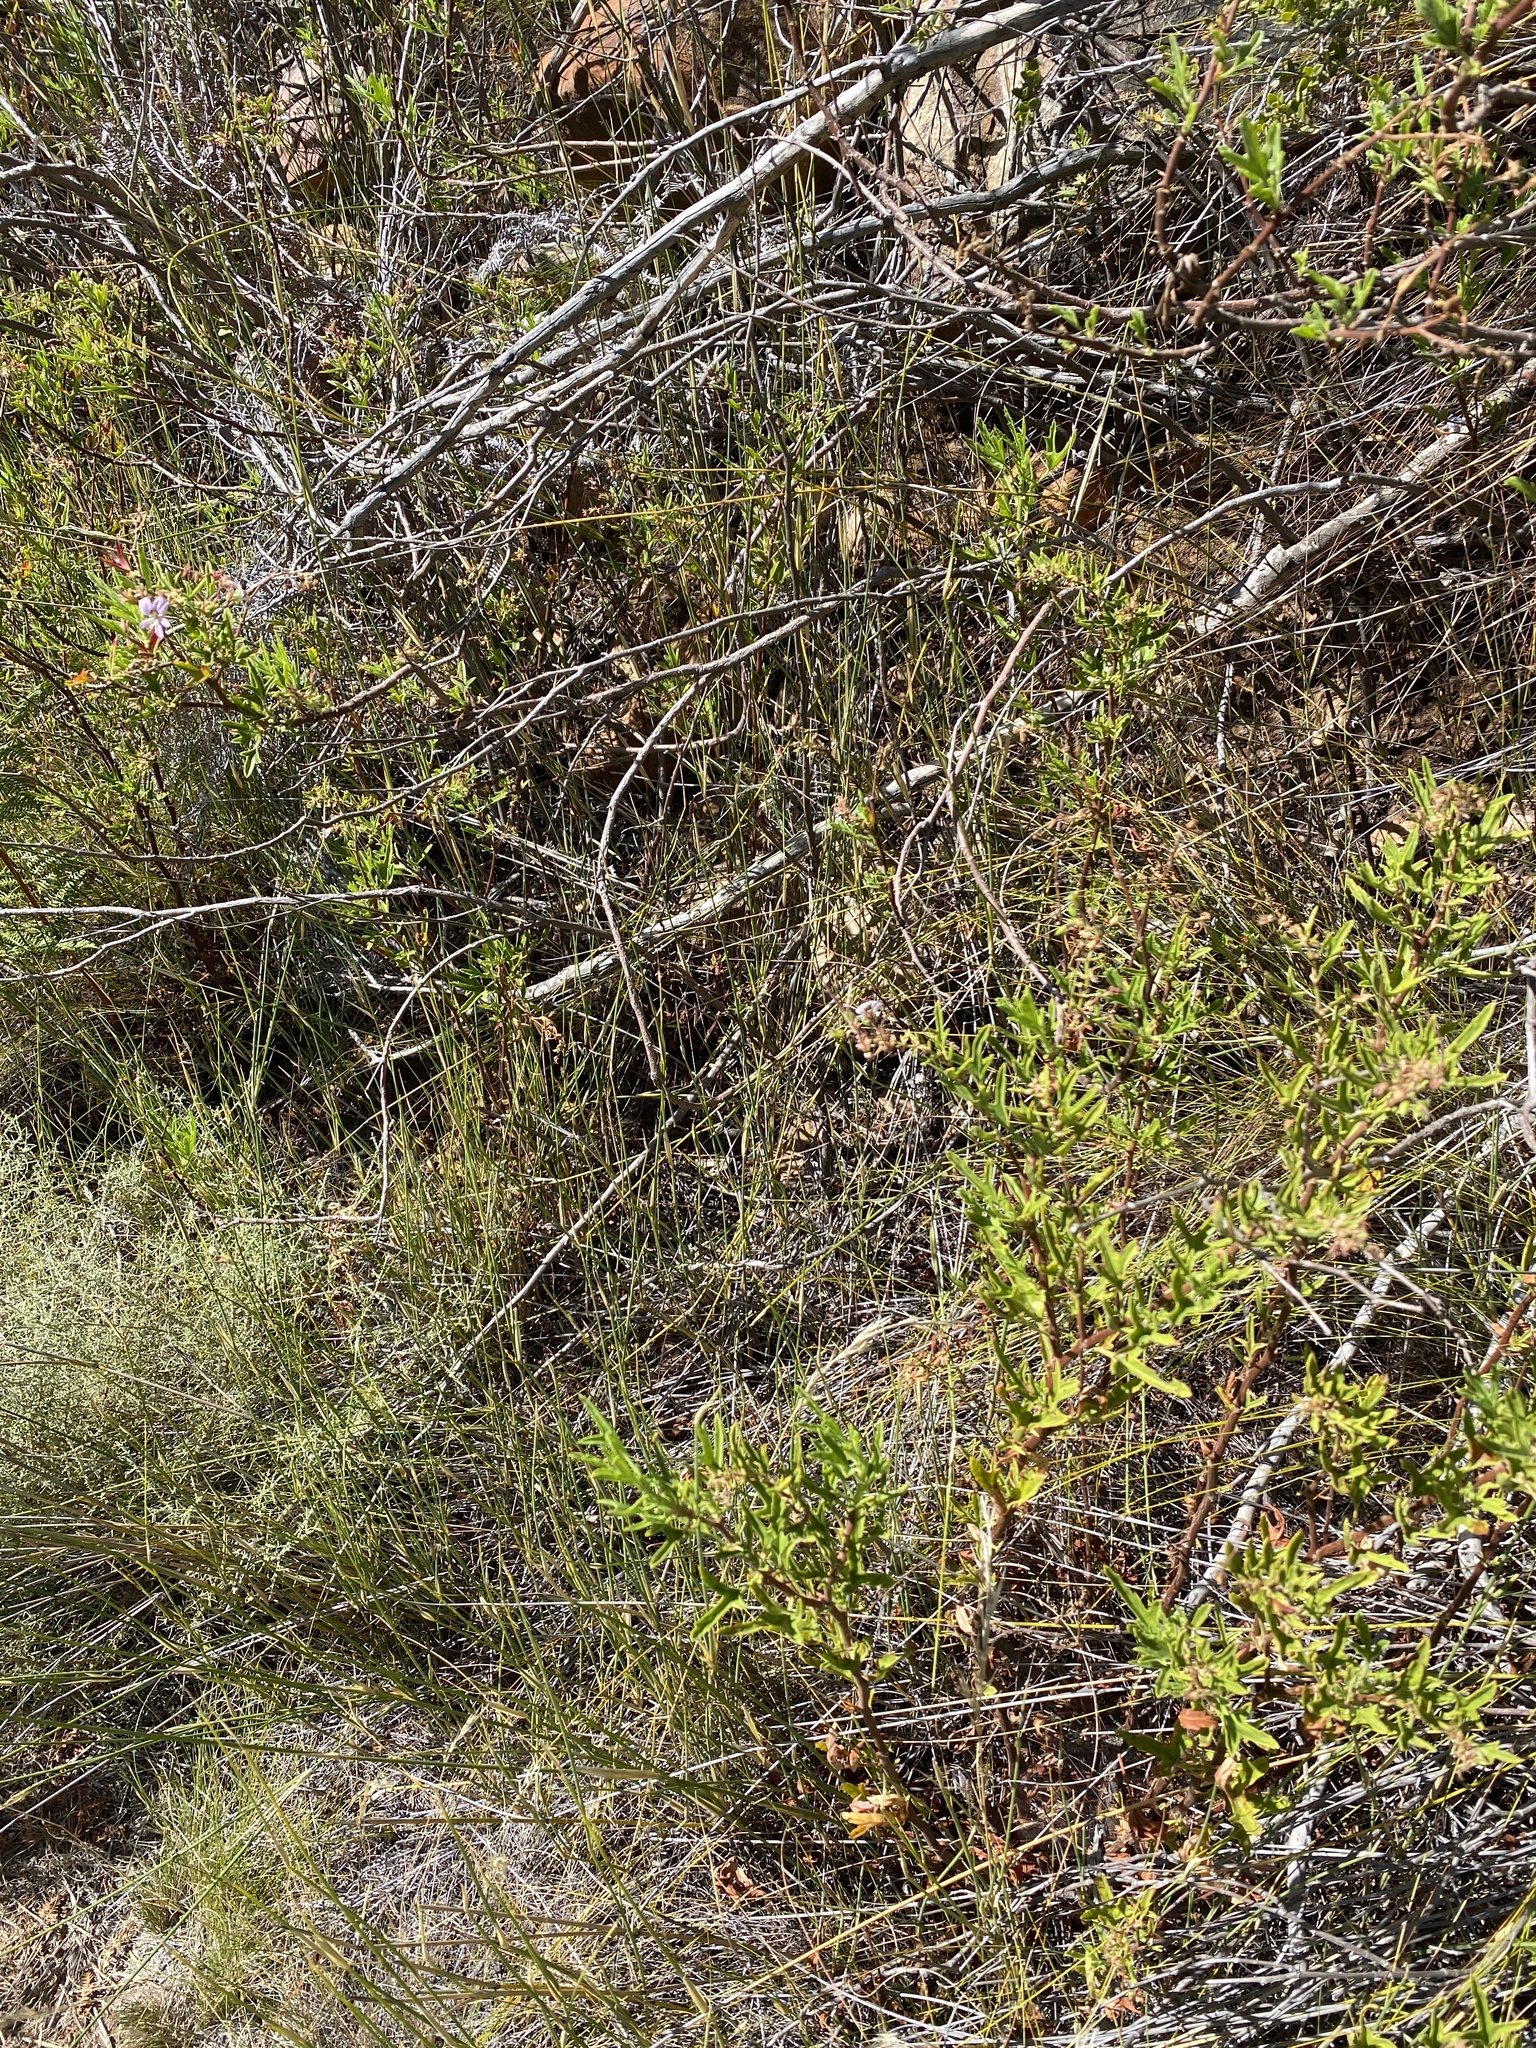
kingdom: Plantae
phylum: Tracheophyta
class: Magnoliopsida
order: Geraniales
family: Geraniaceae
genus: Pelargonium
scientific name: Pelargonium scabrum
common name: Apricot geranium
